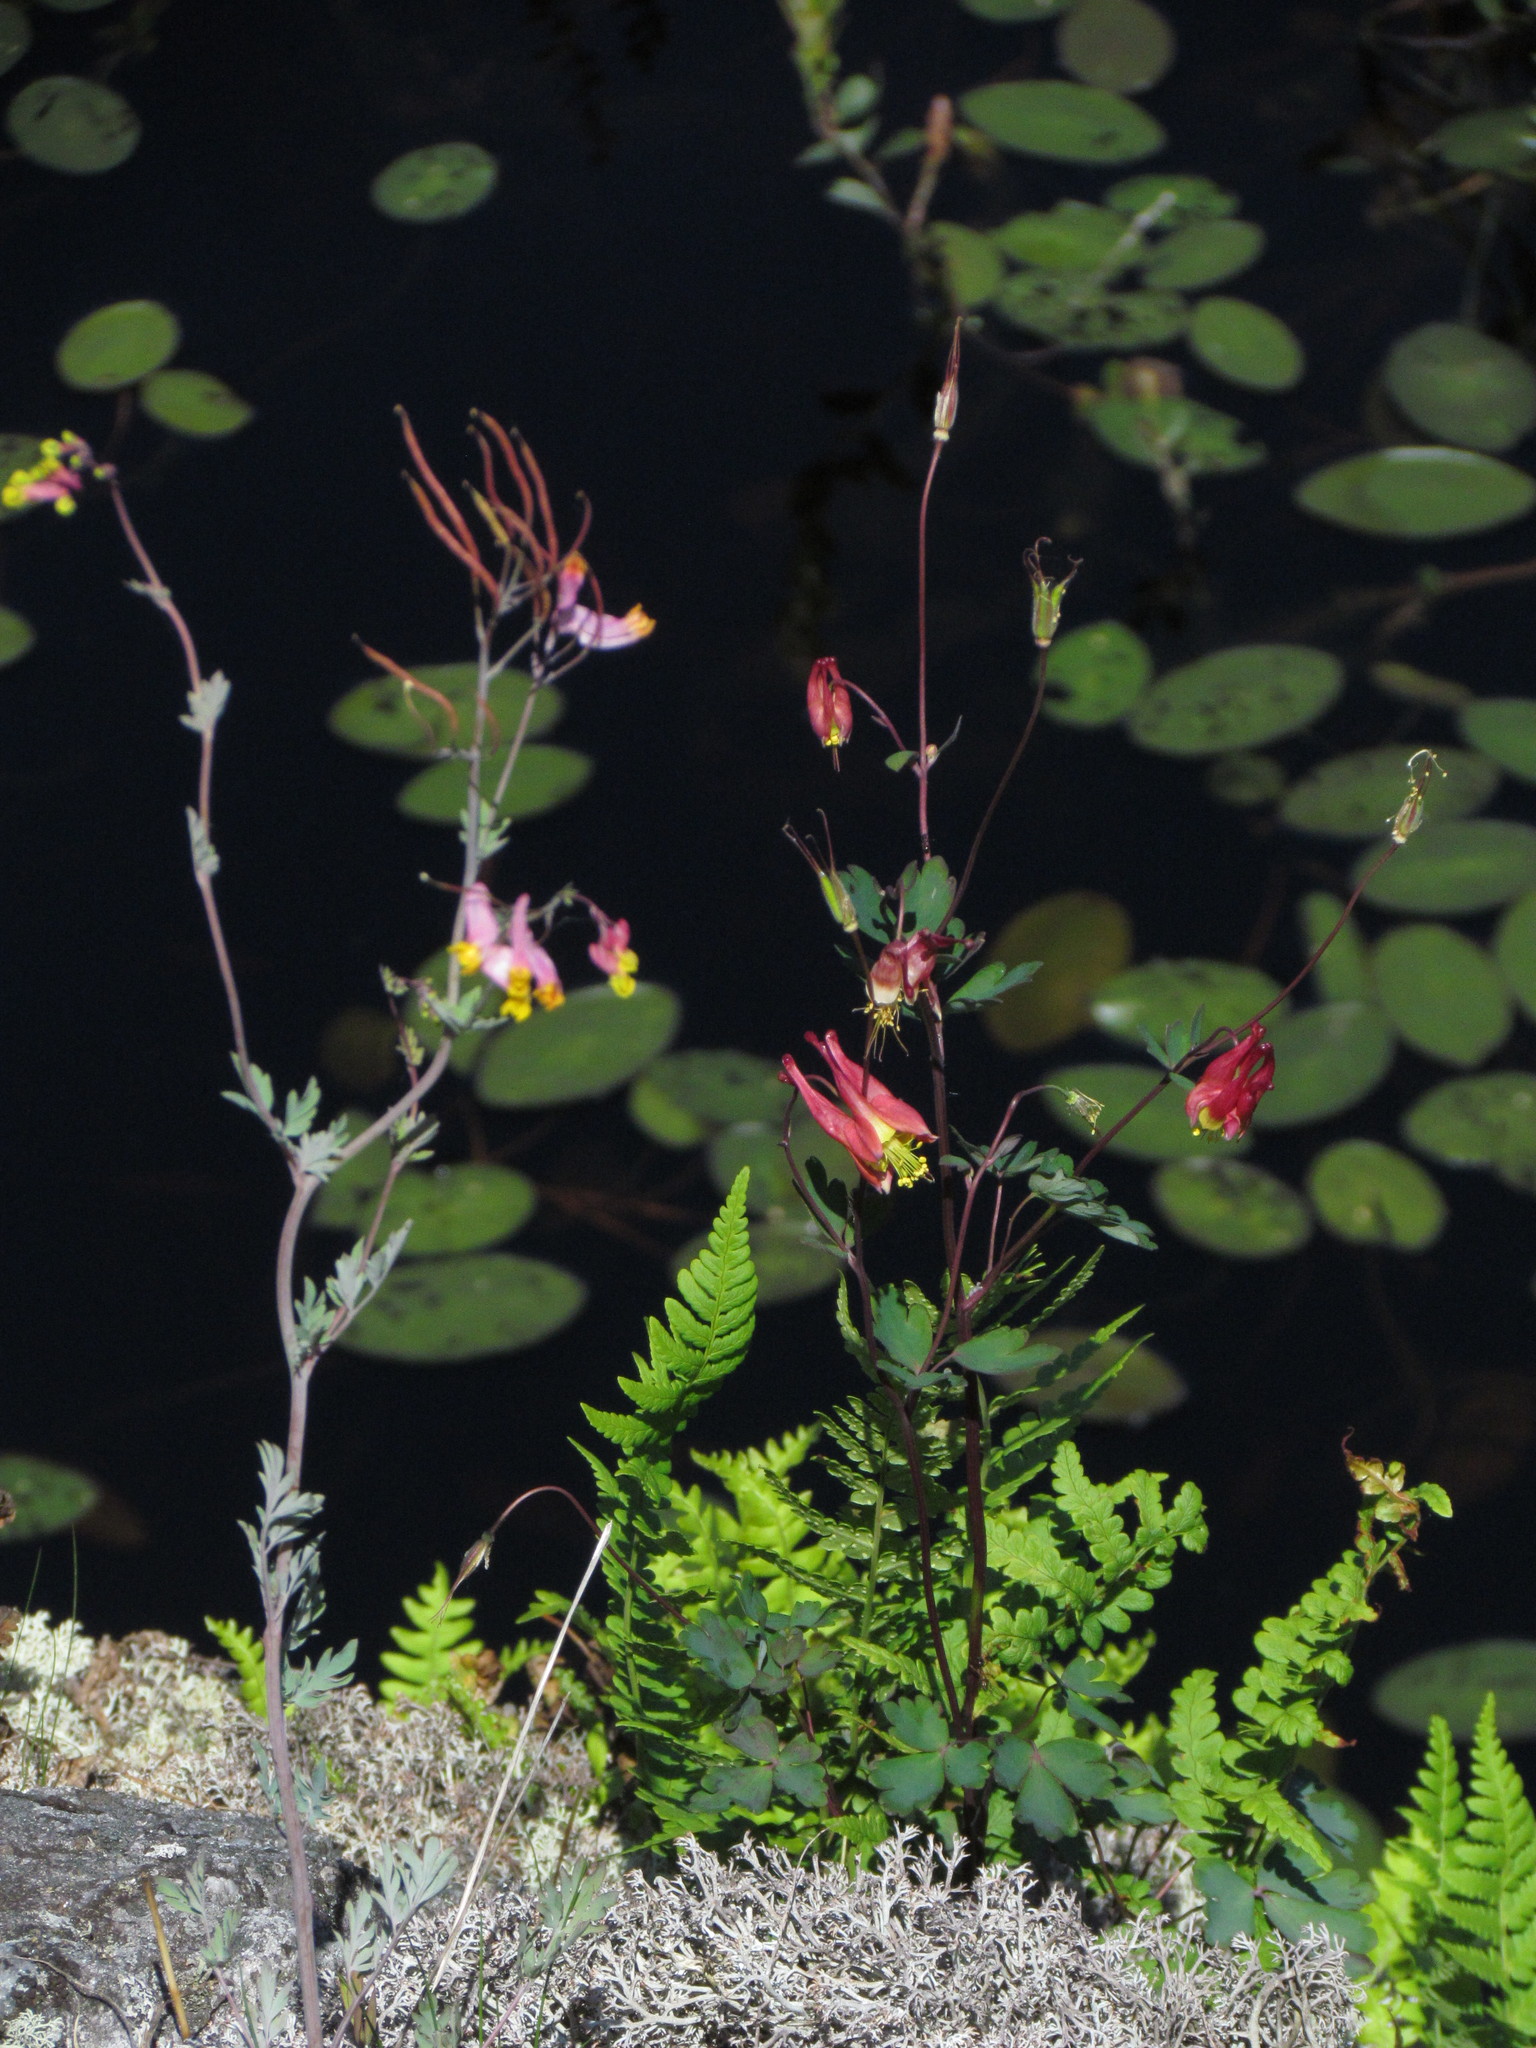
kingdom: Plantae
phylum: Tracheophyta
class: Magnoliopsida
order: Ranunculales
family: Ranunculaceae
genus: Aquilegia
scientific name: Aquilegia canadensis
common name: American columbine
